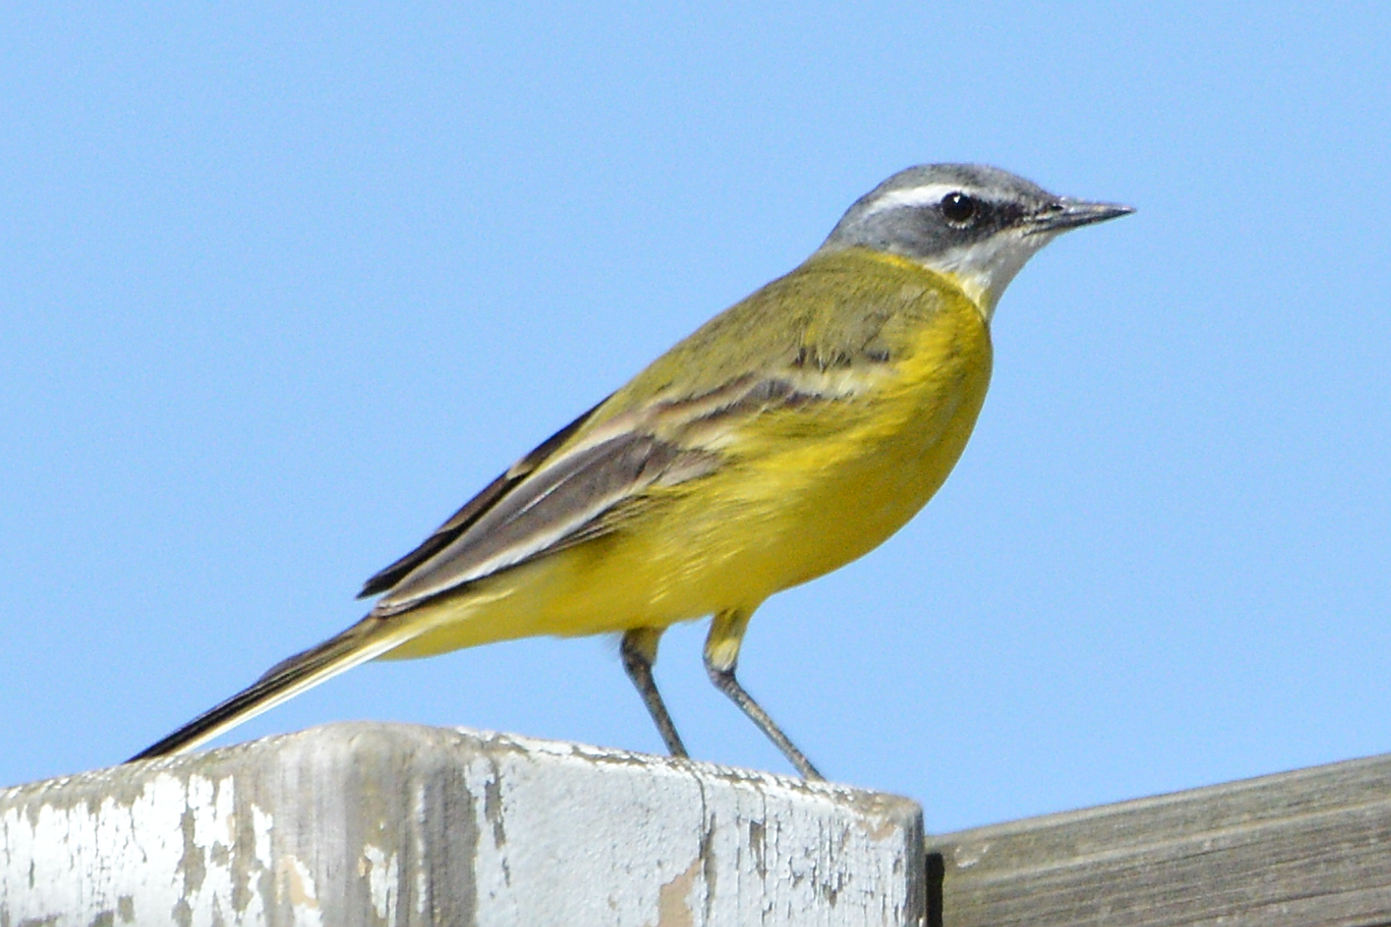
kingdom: Animalia
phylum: Chordata
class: Aves
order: Passeriformes
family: Motacillidae
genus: Motacilla
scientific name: Motacilla flava
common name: Western yellow wagtail
